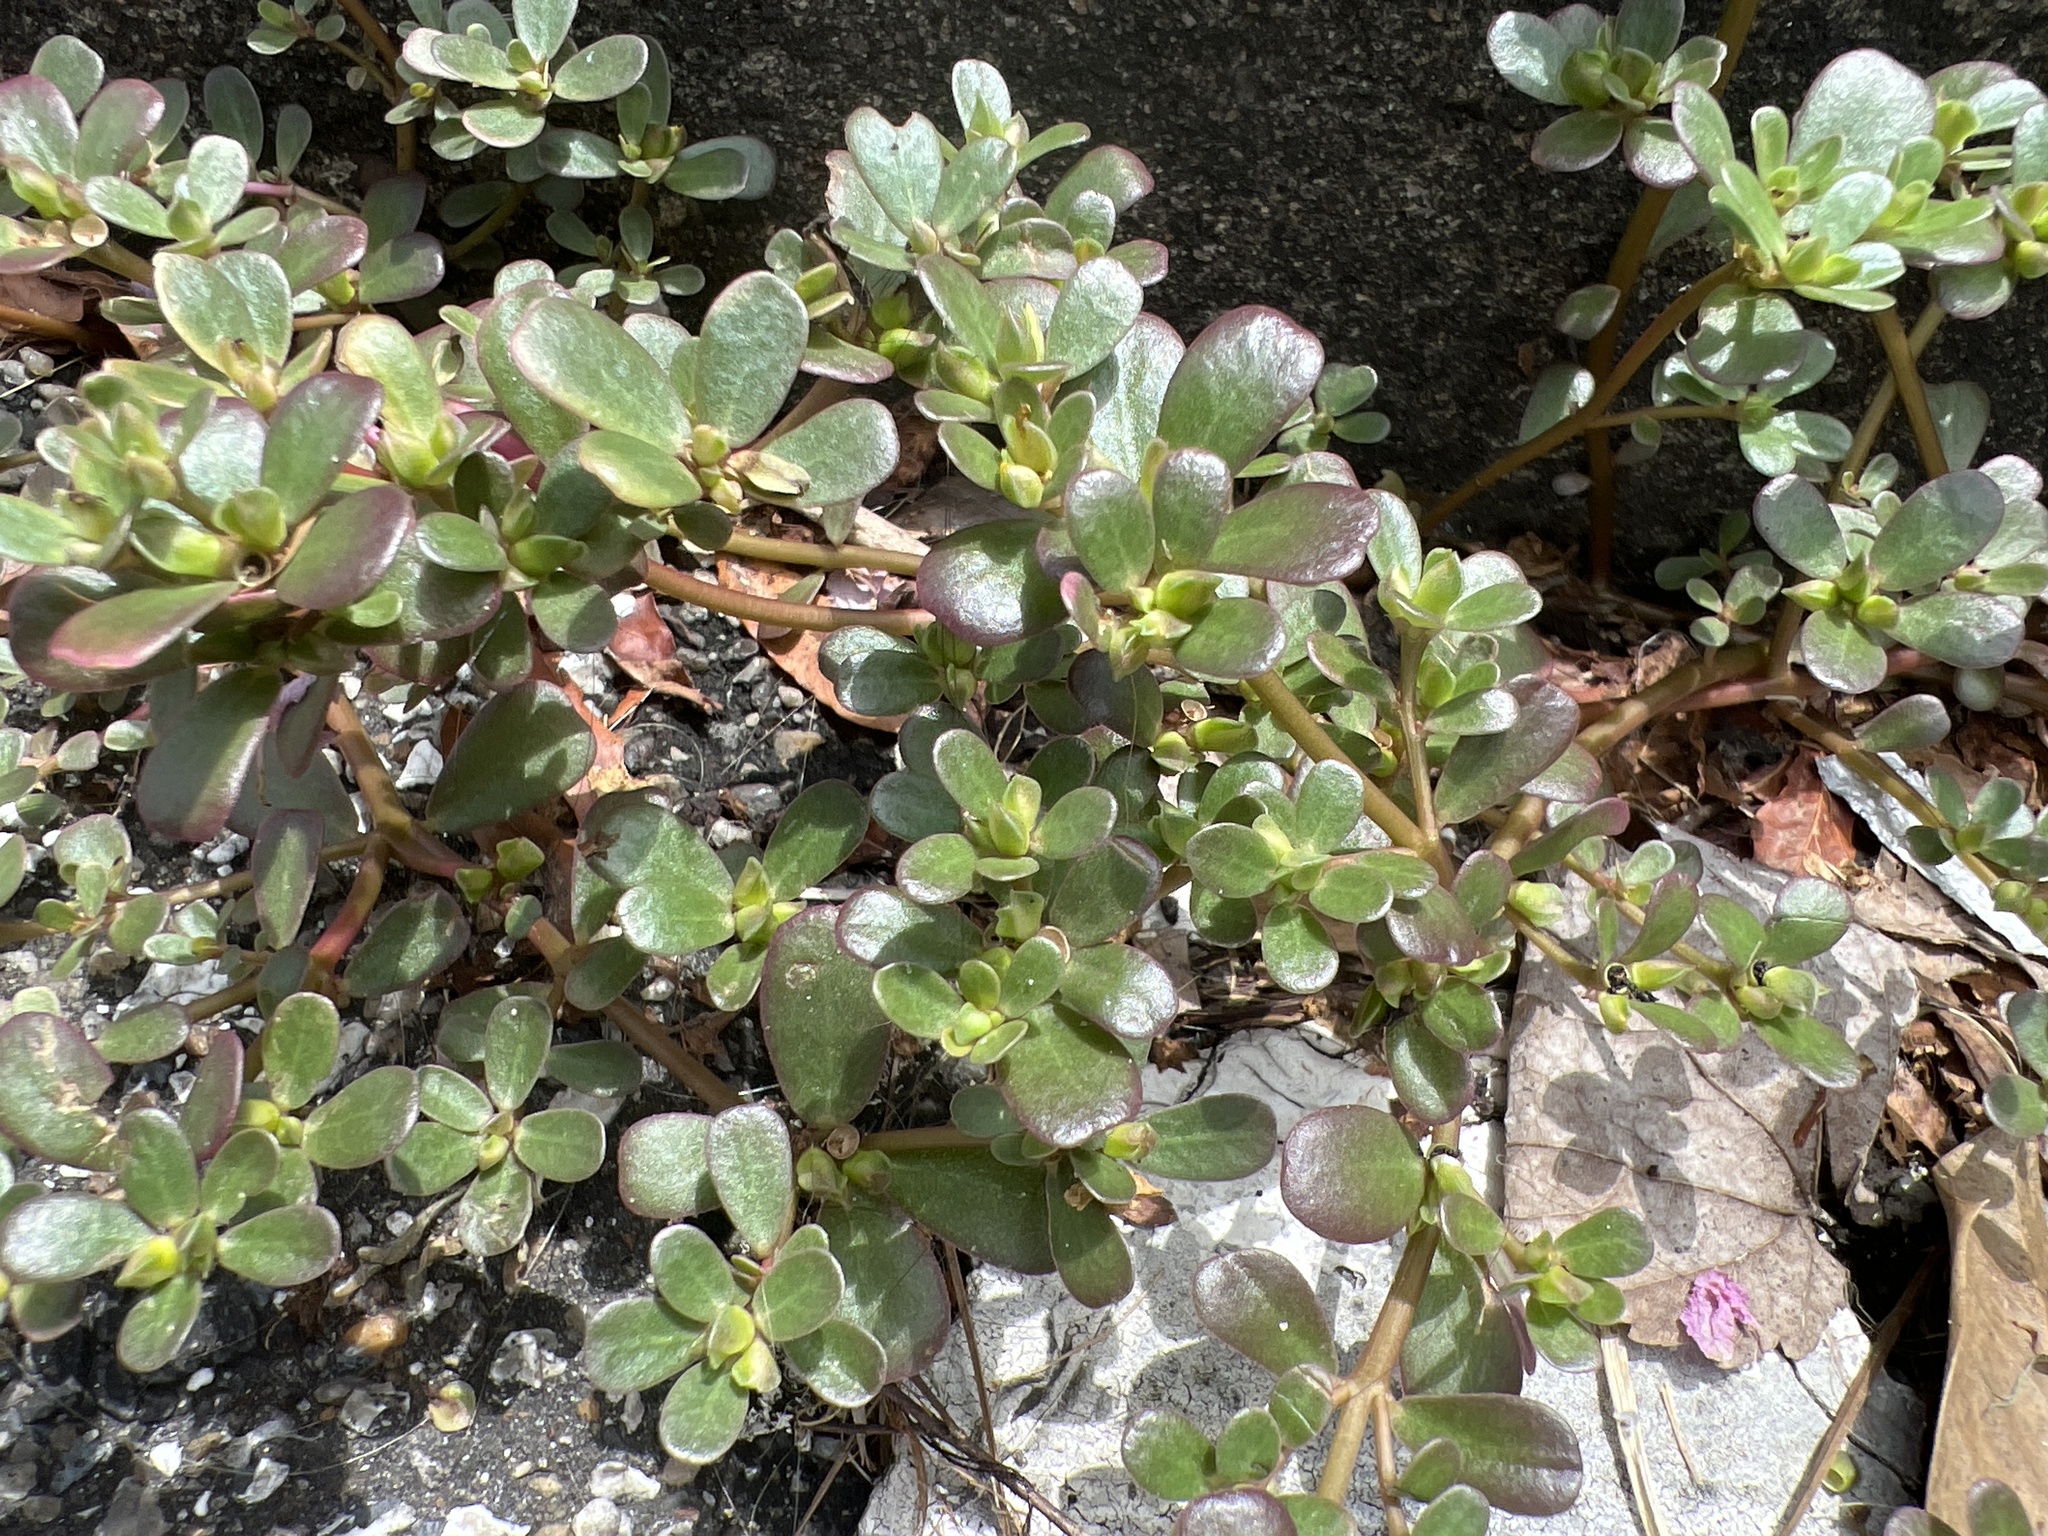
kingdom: Plantae
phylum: Tracheophyta
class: Magnoliopsida
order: Caryophyllales
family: Portulacaceae
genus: Portulaca
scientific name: Portulaca oleracea
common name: Common purslane
